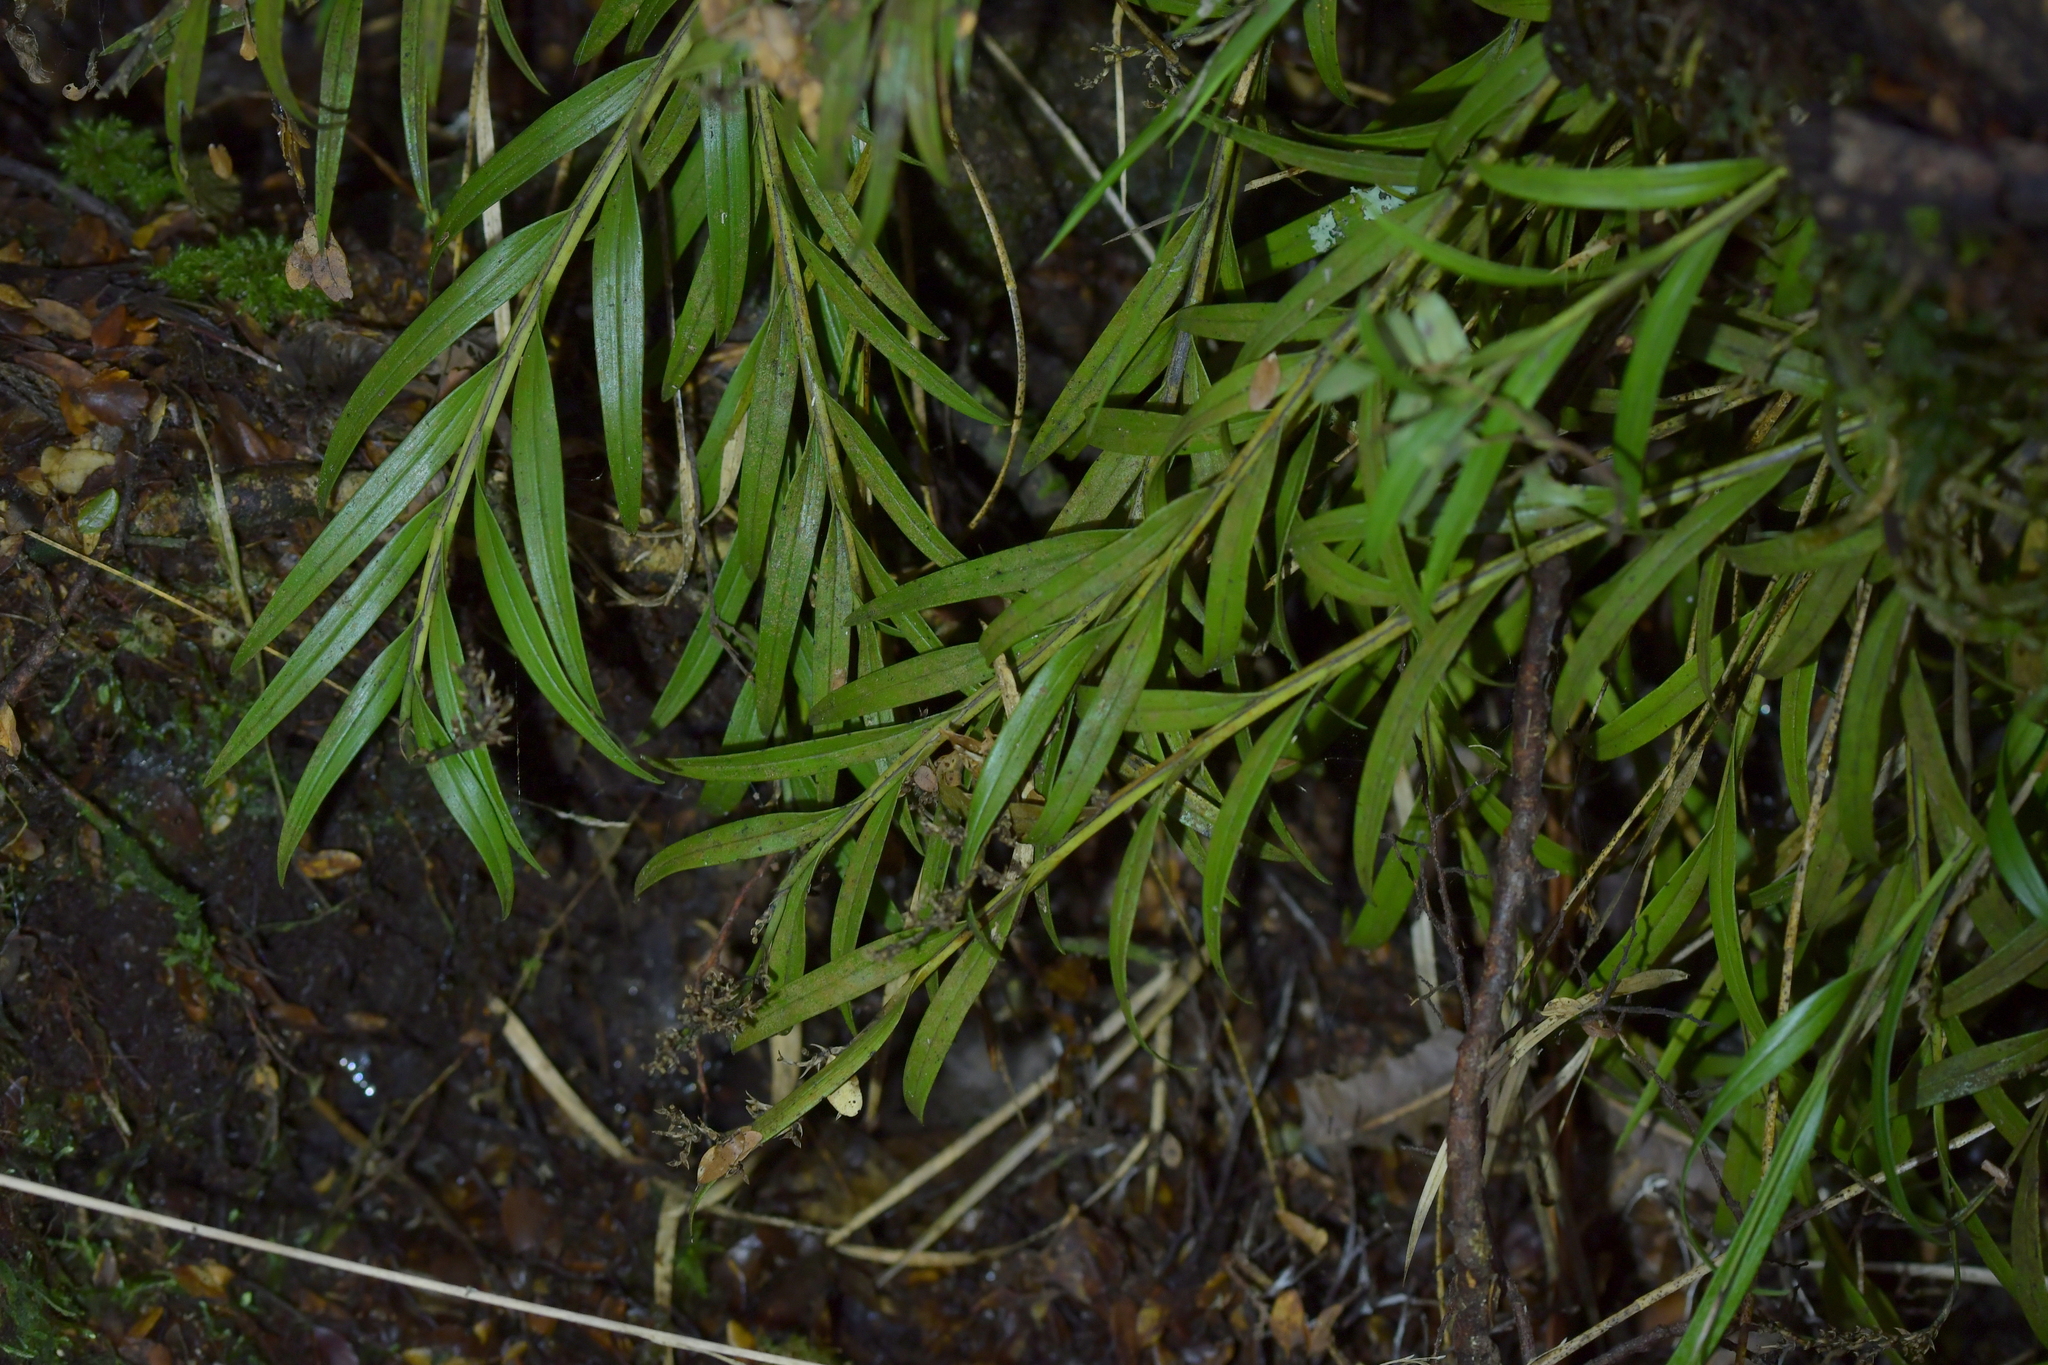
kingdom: Plantae
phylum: Tracheophyta
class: Liliopsida
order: Asparagales
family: Orchidaceae
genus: Earina
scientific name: Earina autumnalis
